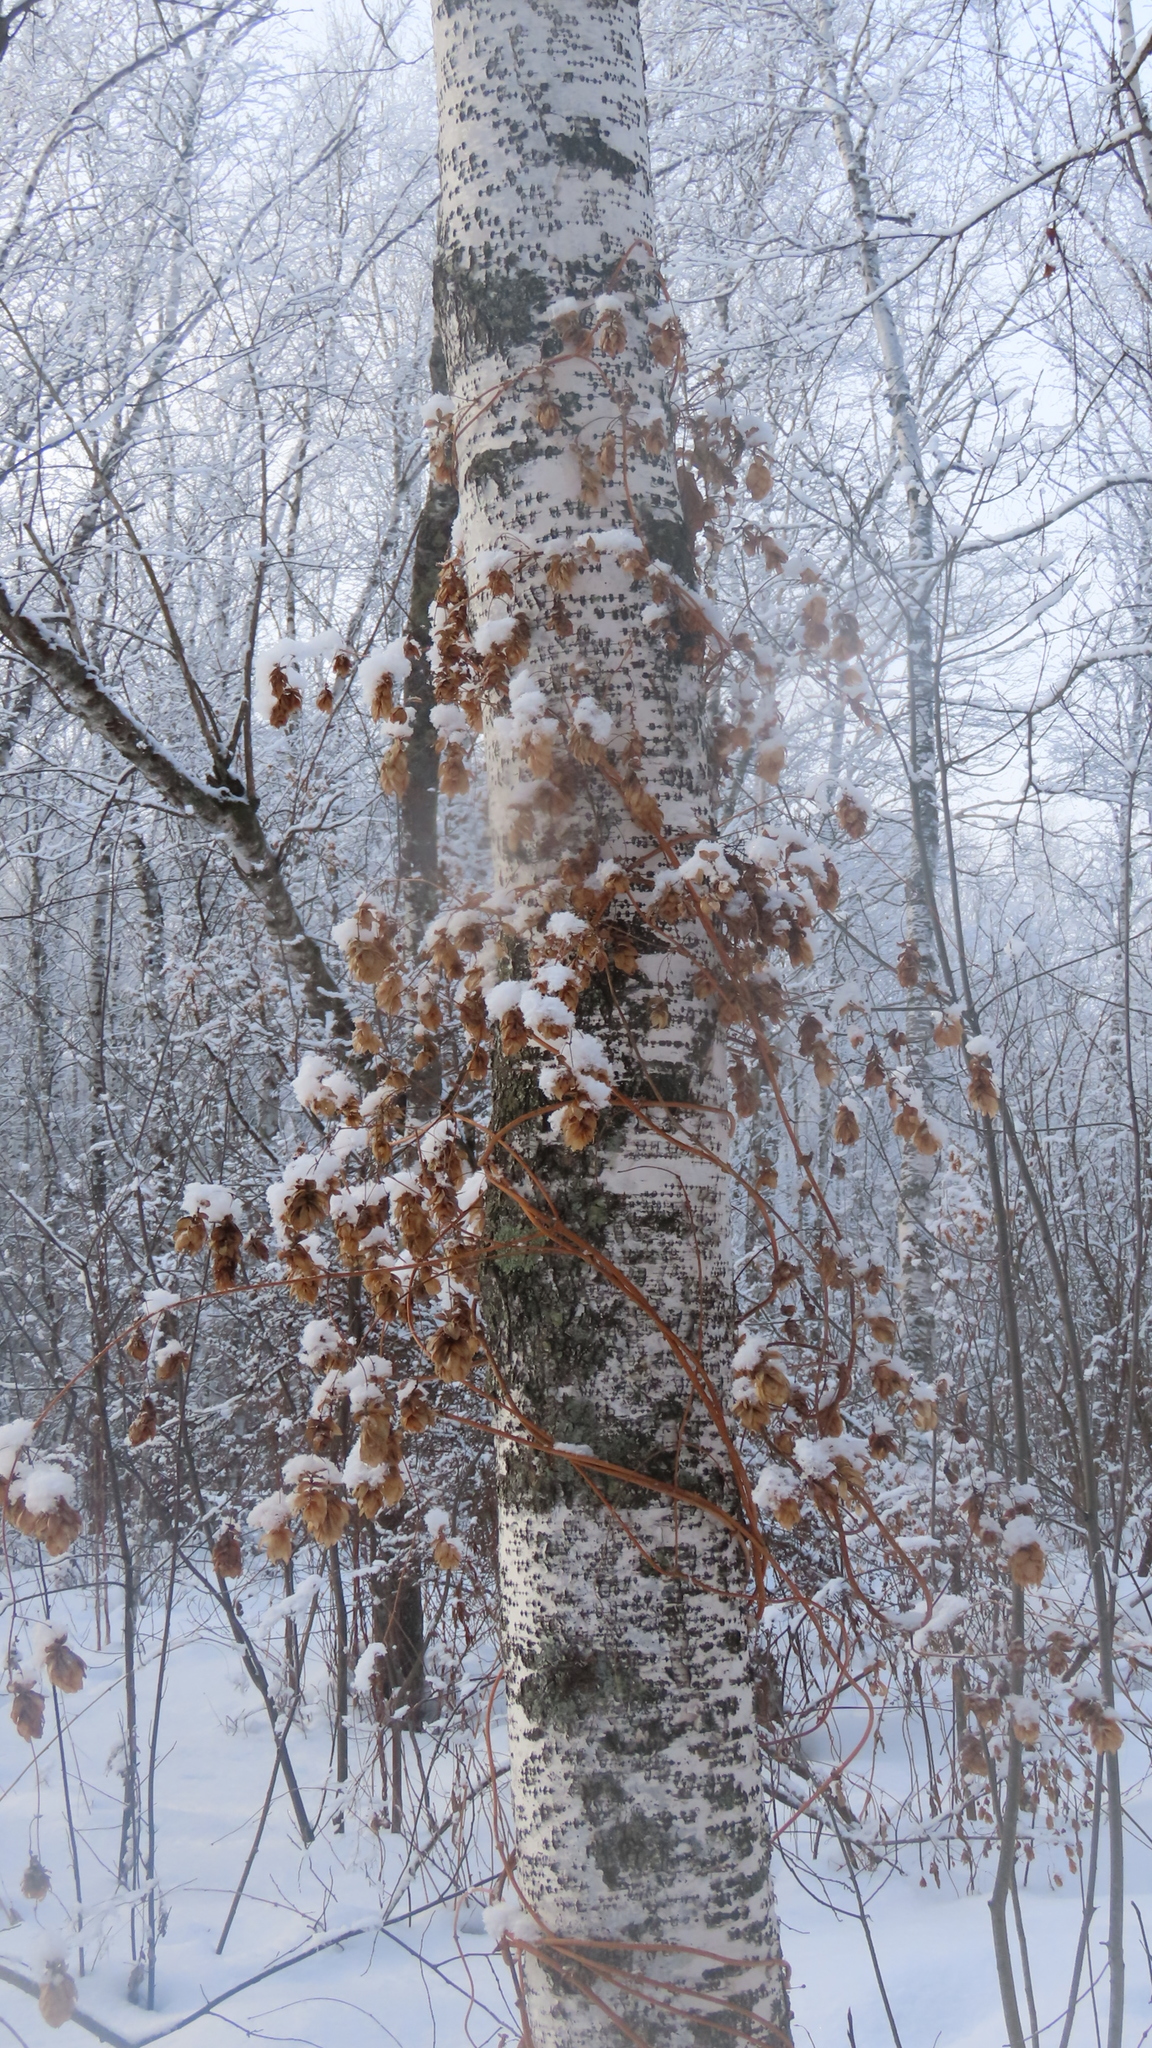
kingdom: Plantae
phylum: Tracheophyta
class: Magnoliopsida
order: Rosales
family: Cannabaceae
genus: Humulus
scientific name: Humulus lupulus
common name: Hop
